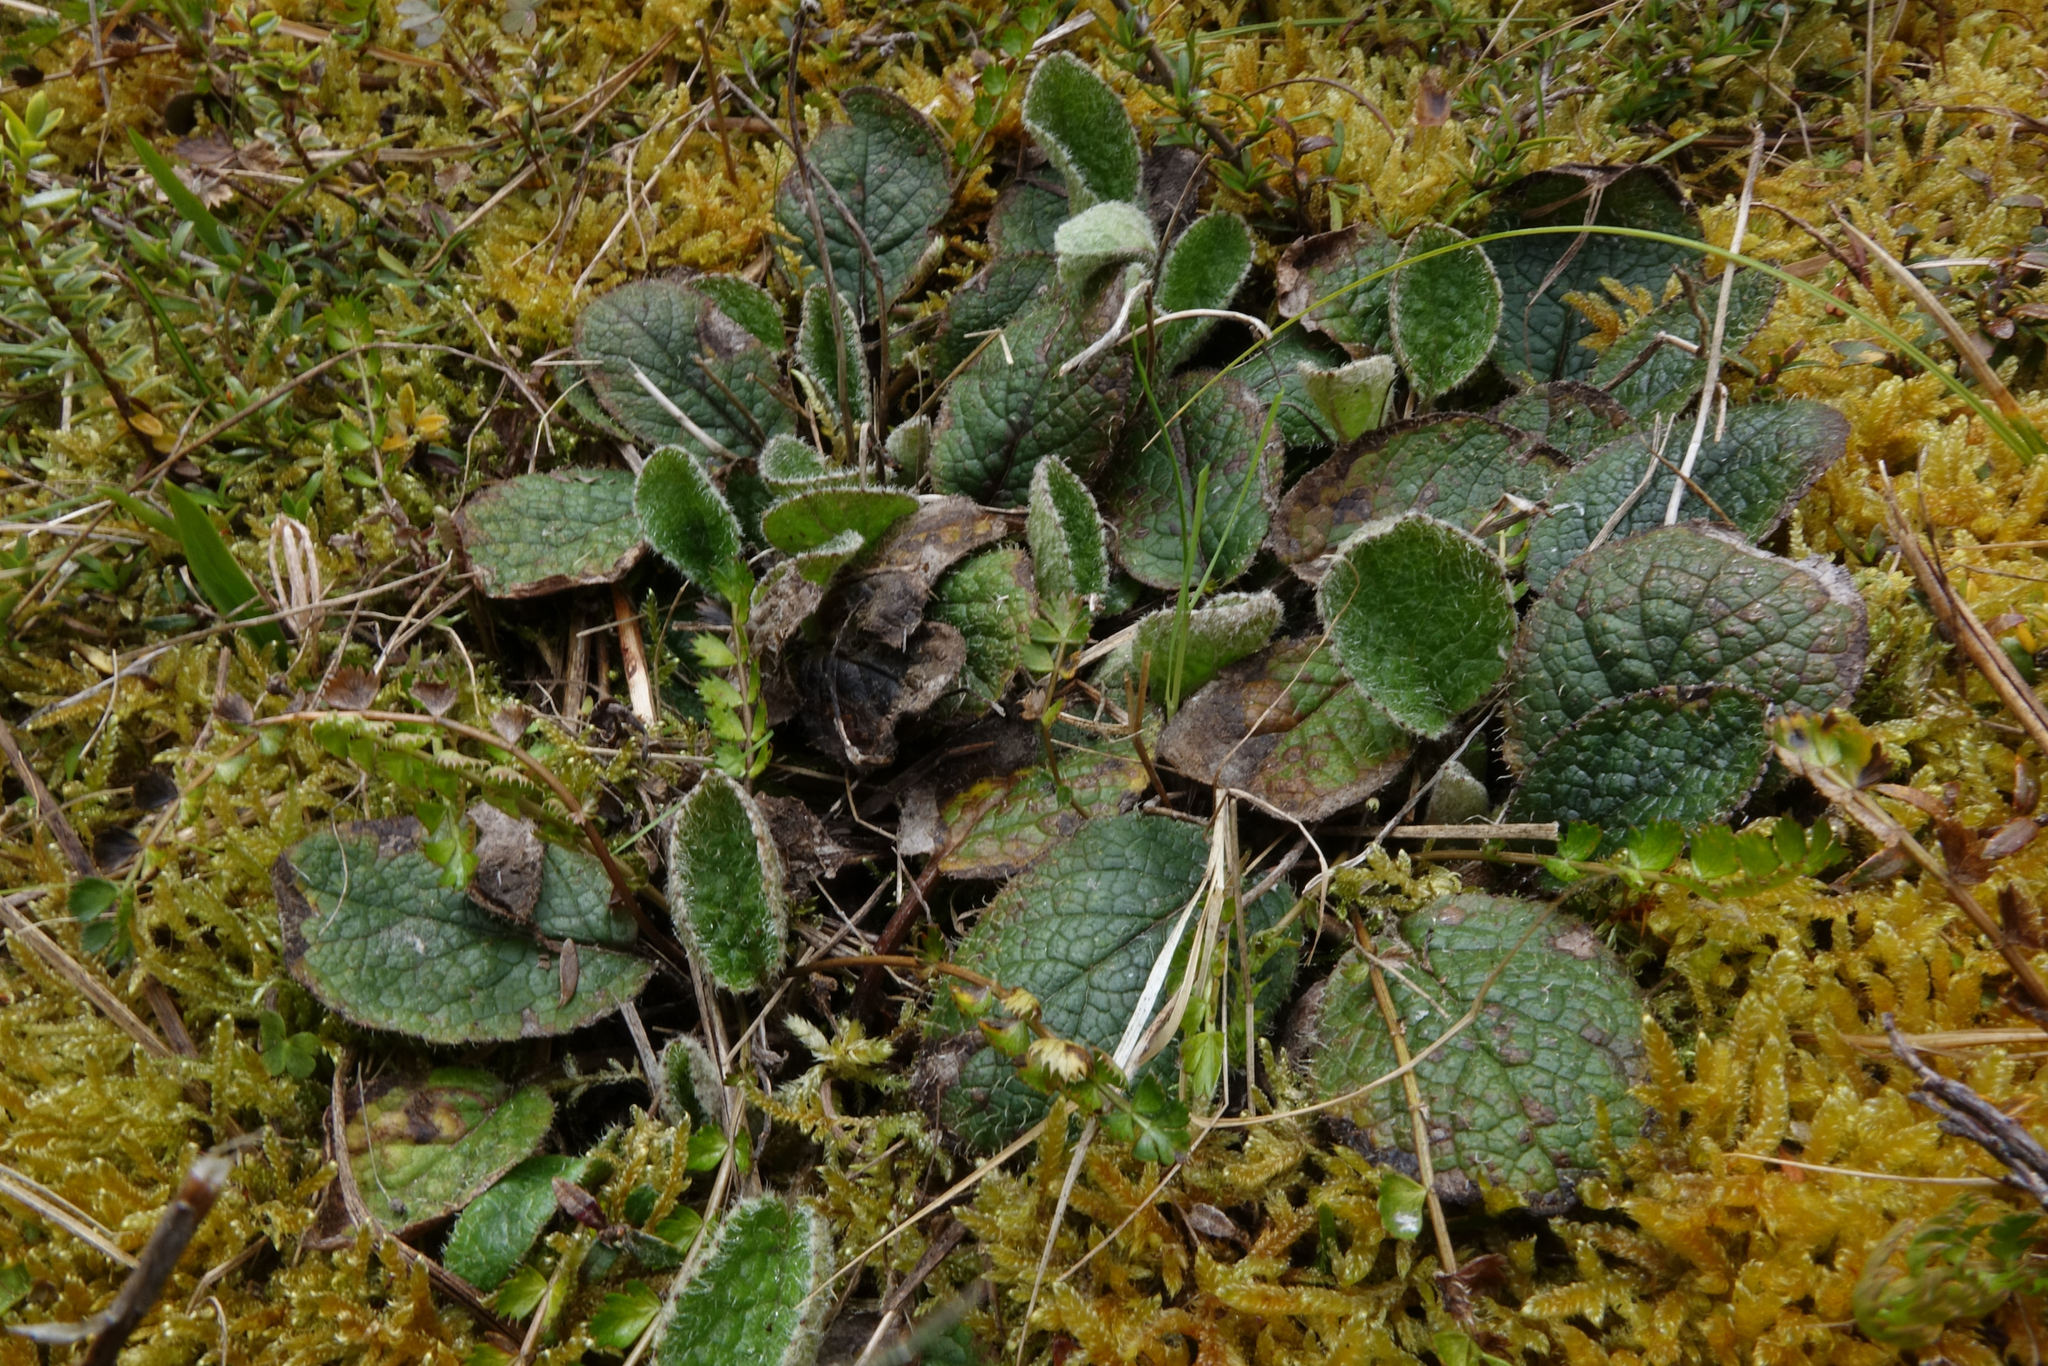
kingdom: Plantae
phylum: Tracheophyta
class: Magnoliopsida
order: Asterales
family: Asteraceae
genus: Brachyglottis
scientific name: Brachyglottis bellidioides
